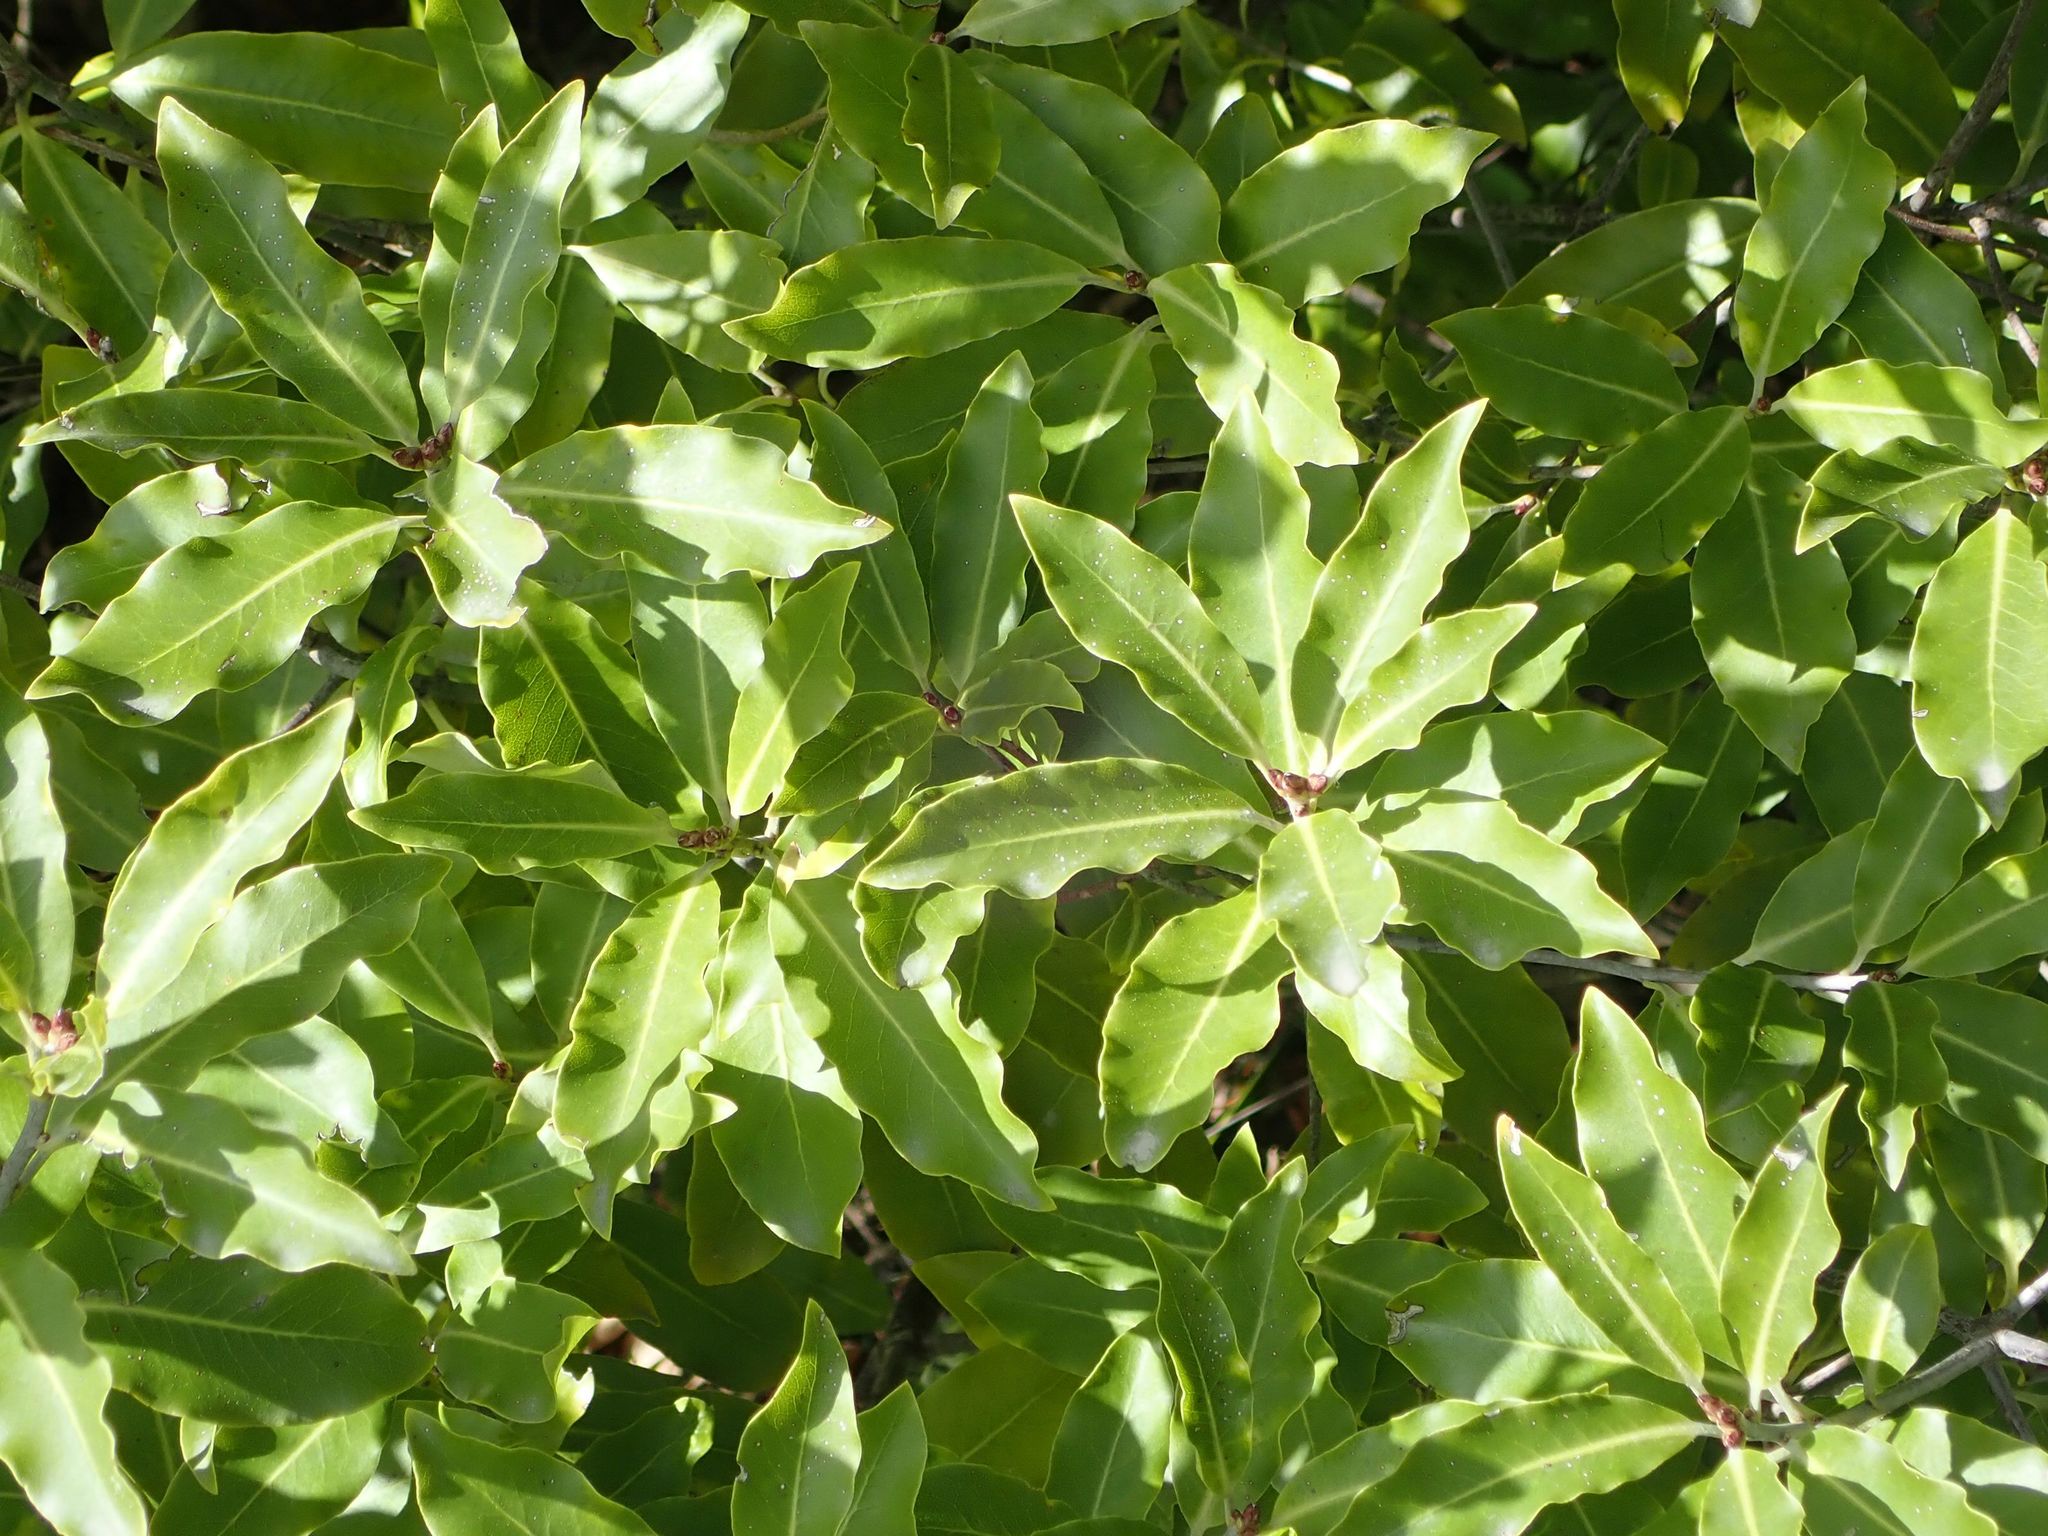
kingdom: Plantae
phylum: Tracheophyta
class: Magnoliopsida
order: Apiales
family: Pittosporaceae
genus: Pittosporum
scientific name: Pittosporum tenuifolium
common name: Kohuhu
